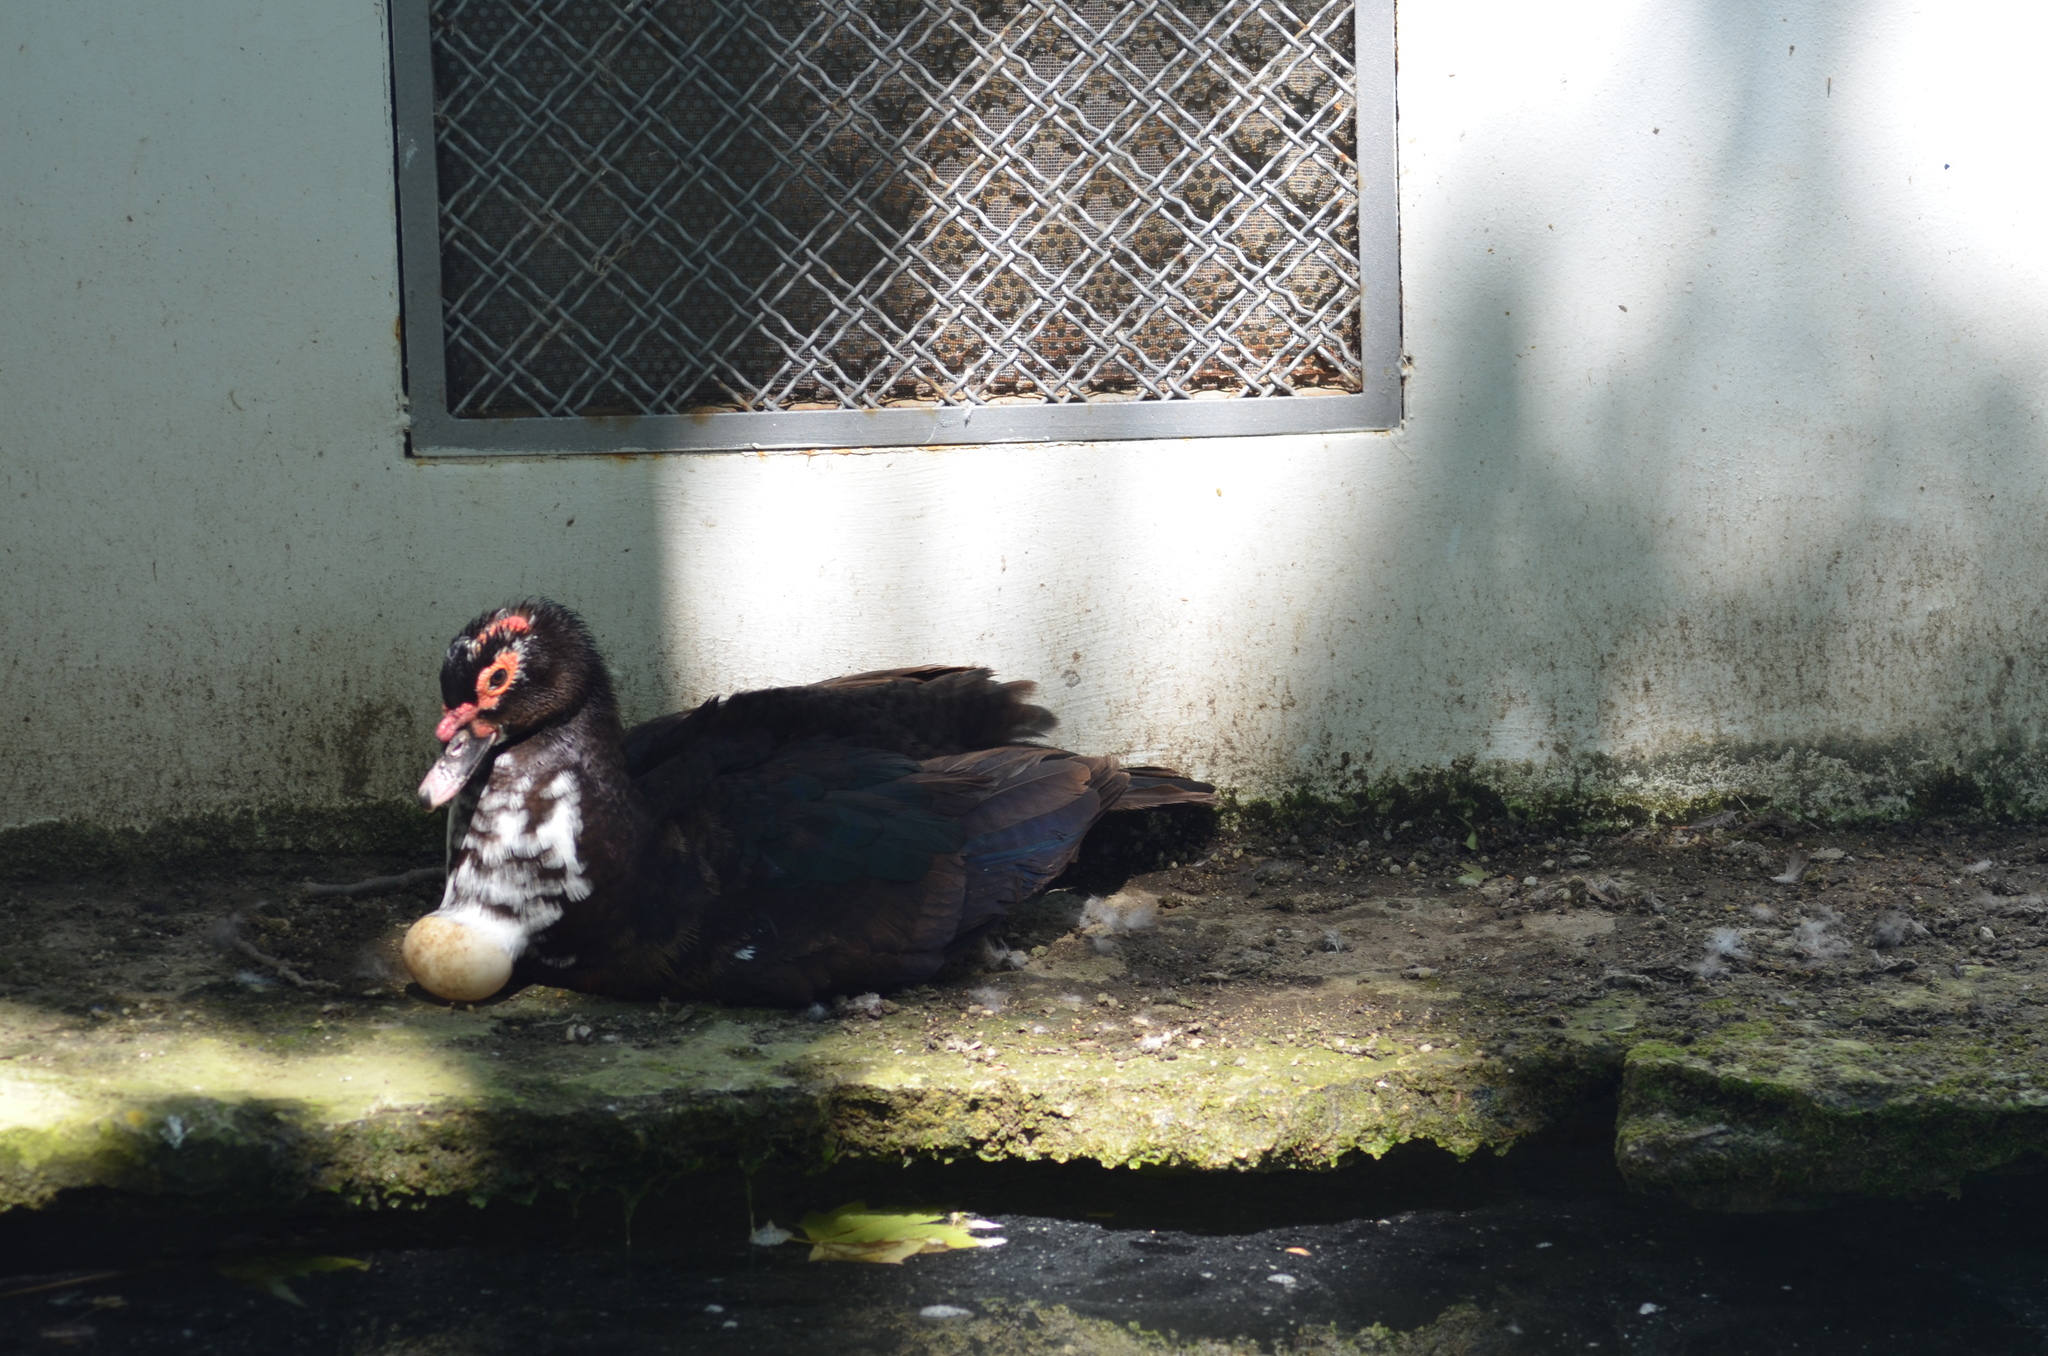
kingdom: Animalia
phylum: Chordata
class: Aves
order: Anseriformes
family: Anatidae
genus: Cairina
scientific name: Cairina moschata
